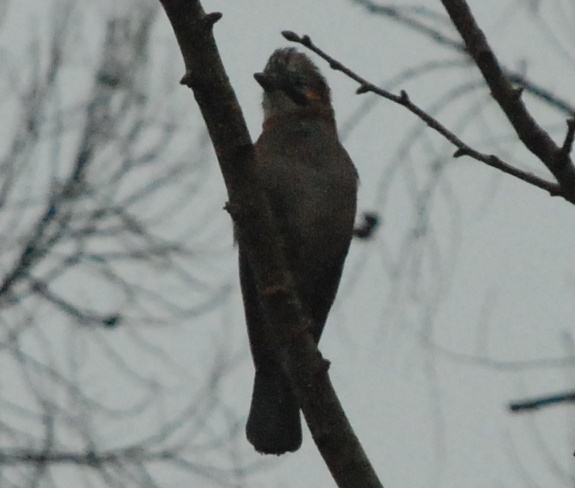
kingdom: Animalia
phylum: Chordata
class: Aves
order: Passeriformes
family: Corvidae
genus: Garrulus
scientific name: Garrulus glandarius
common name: Eurasian jay
